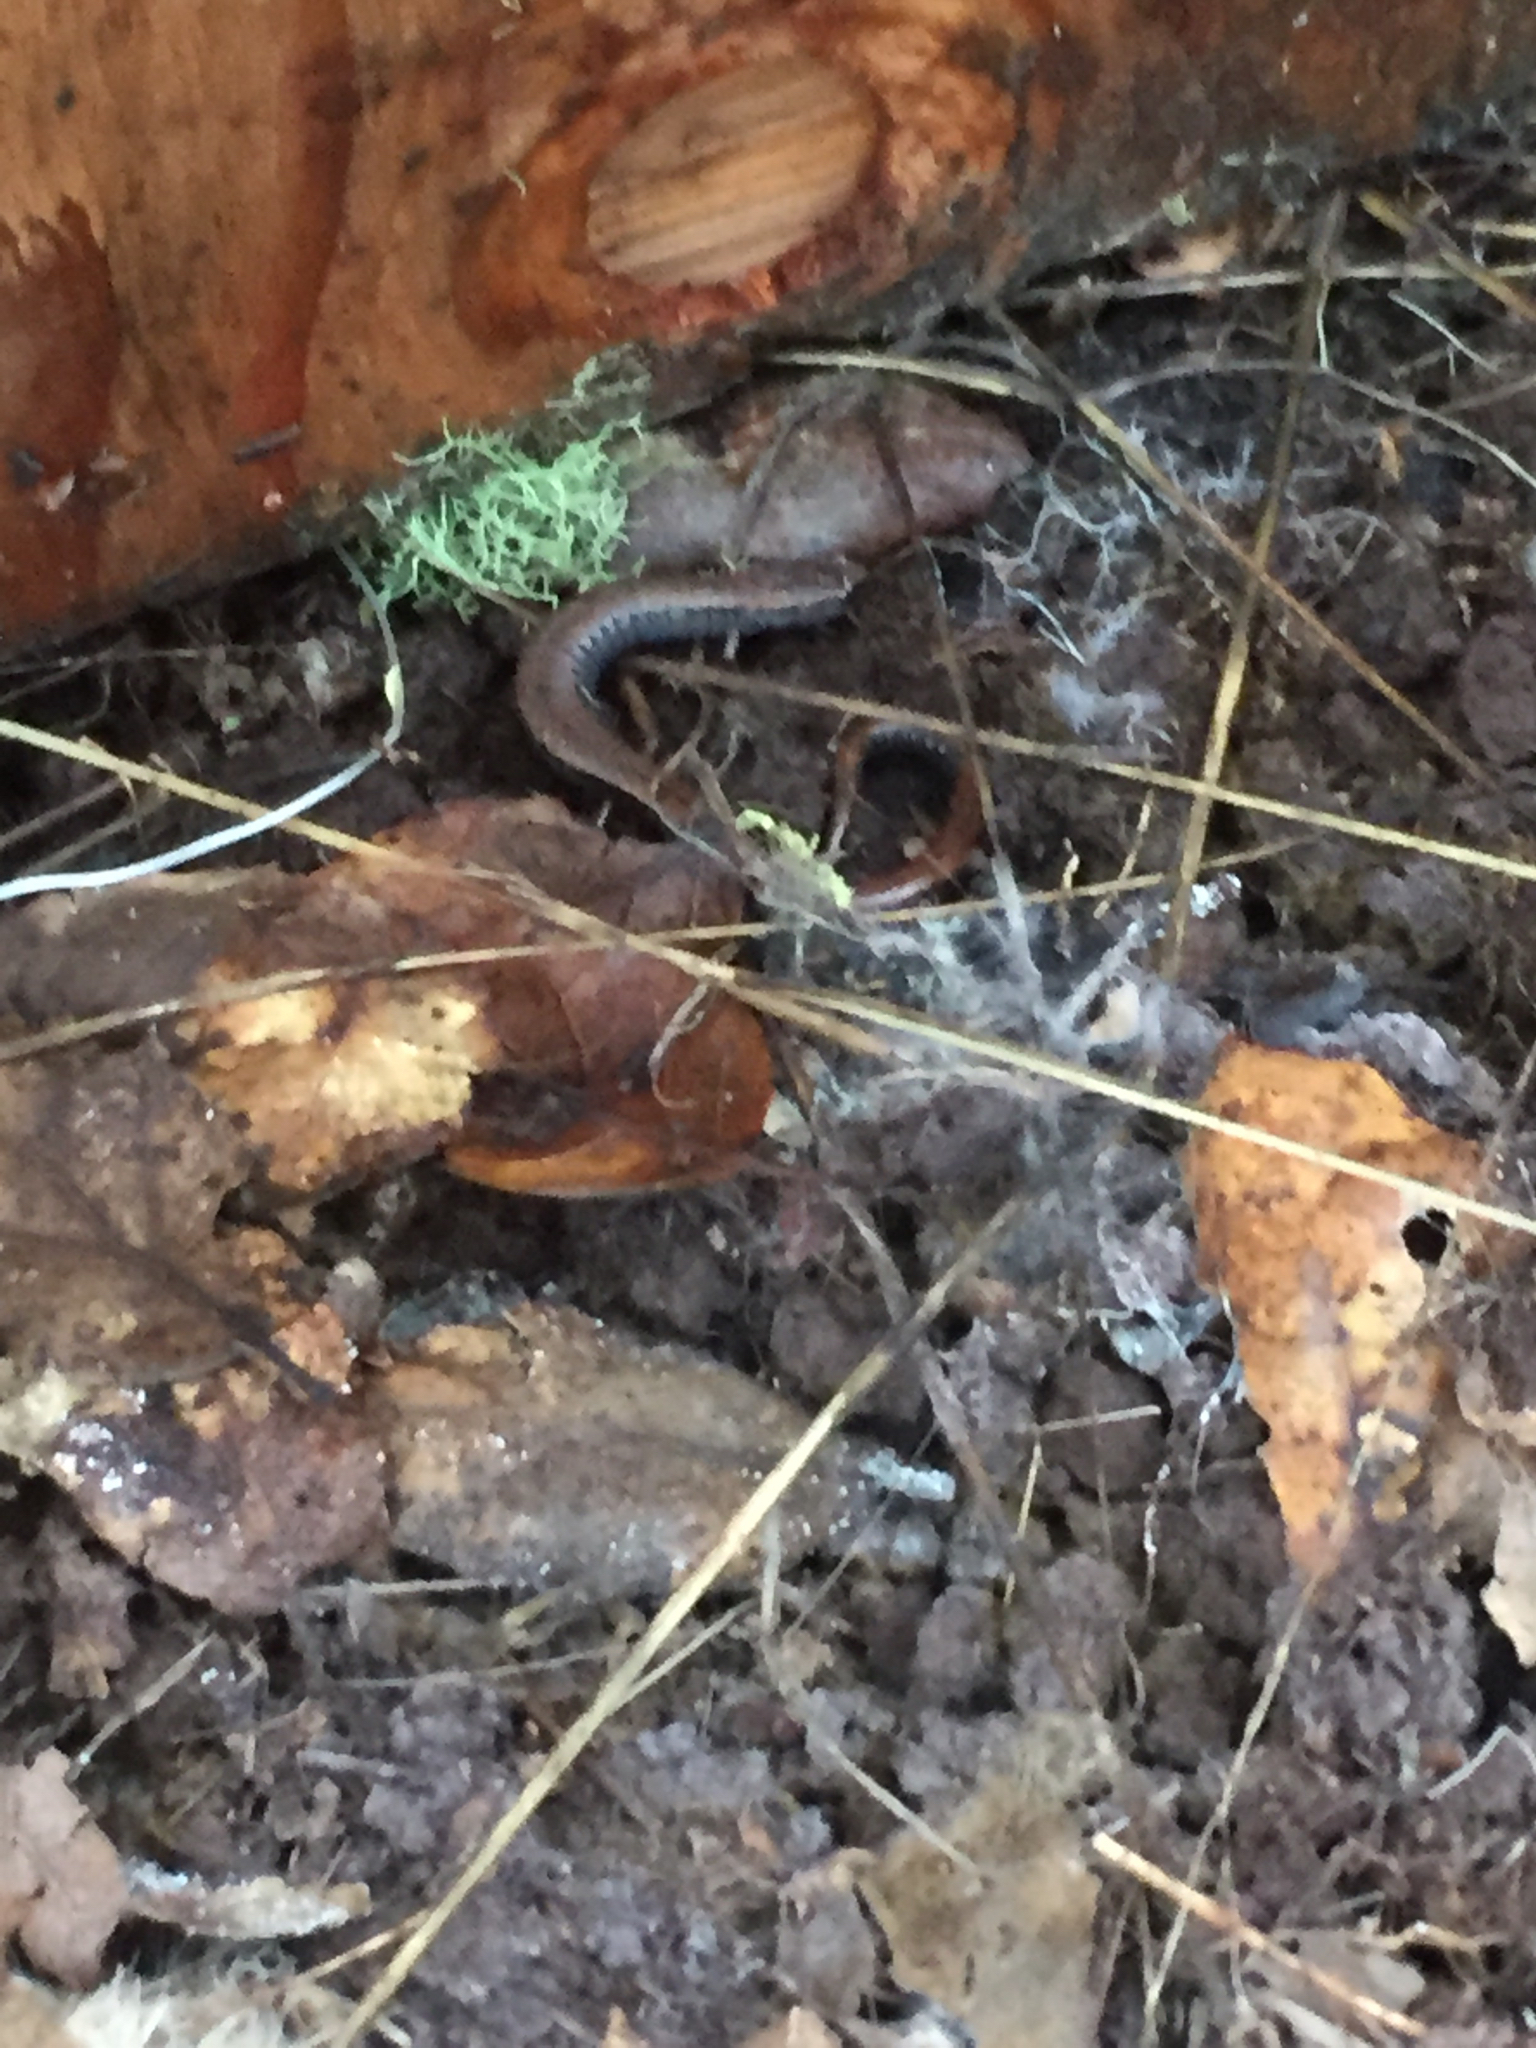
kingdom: Animalia
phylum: Chordata
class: Amphibia
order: Caudata
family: Plethodontidae
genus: Batrachoseps
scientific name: Batrachoseps attenuatus
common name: California slender salamander
